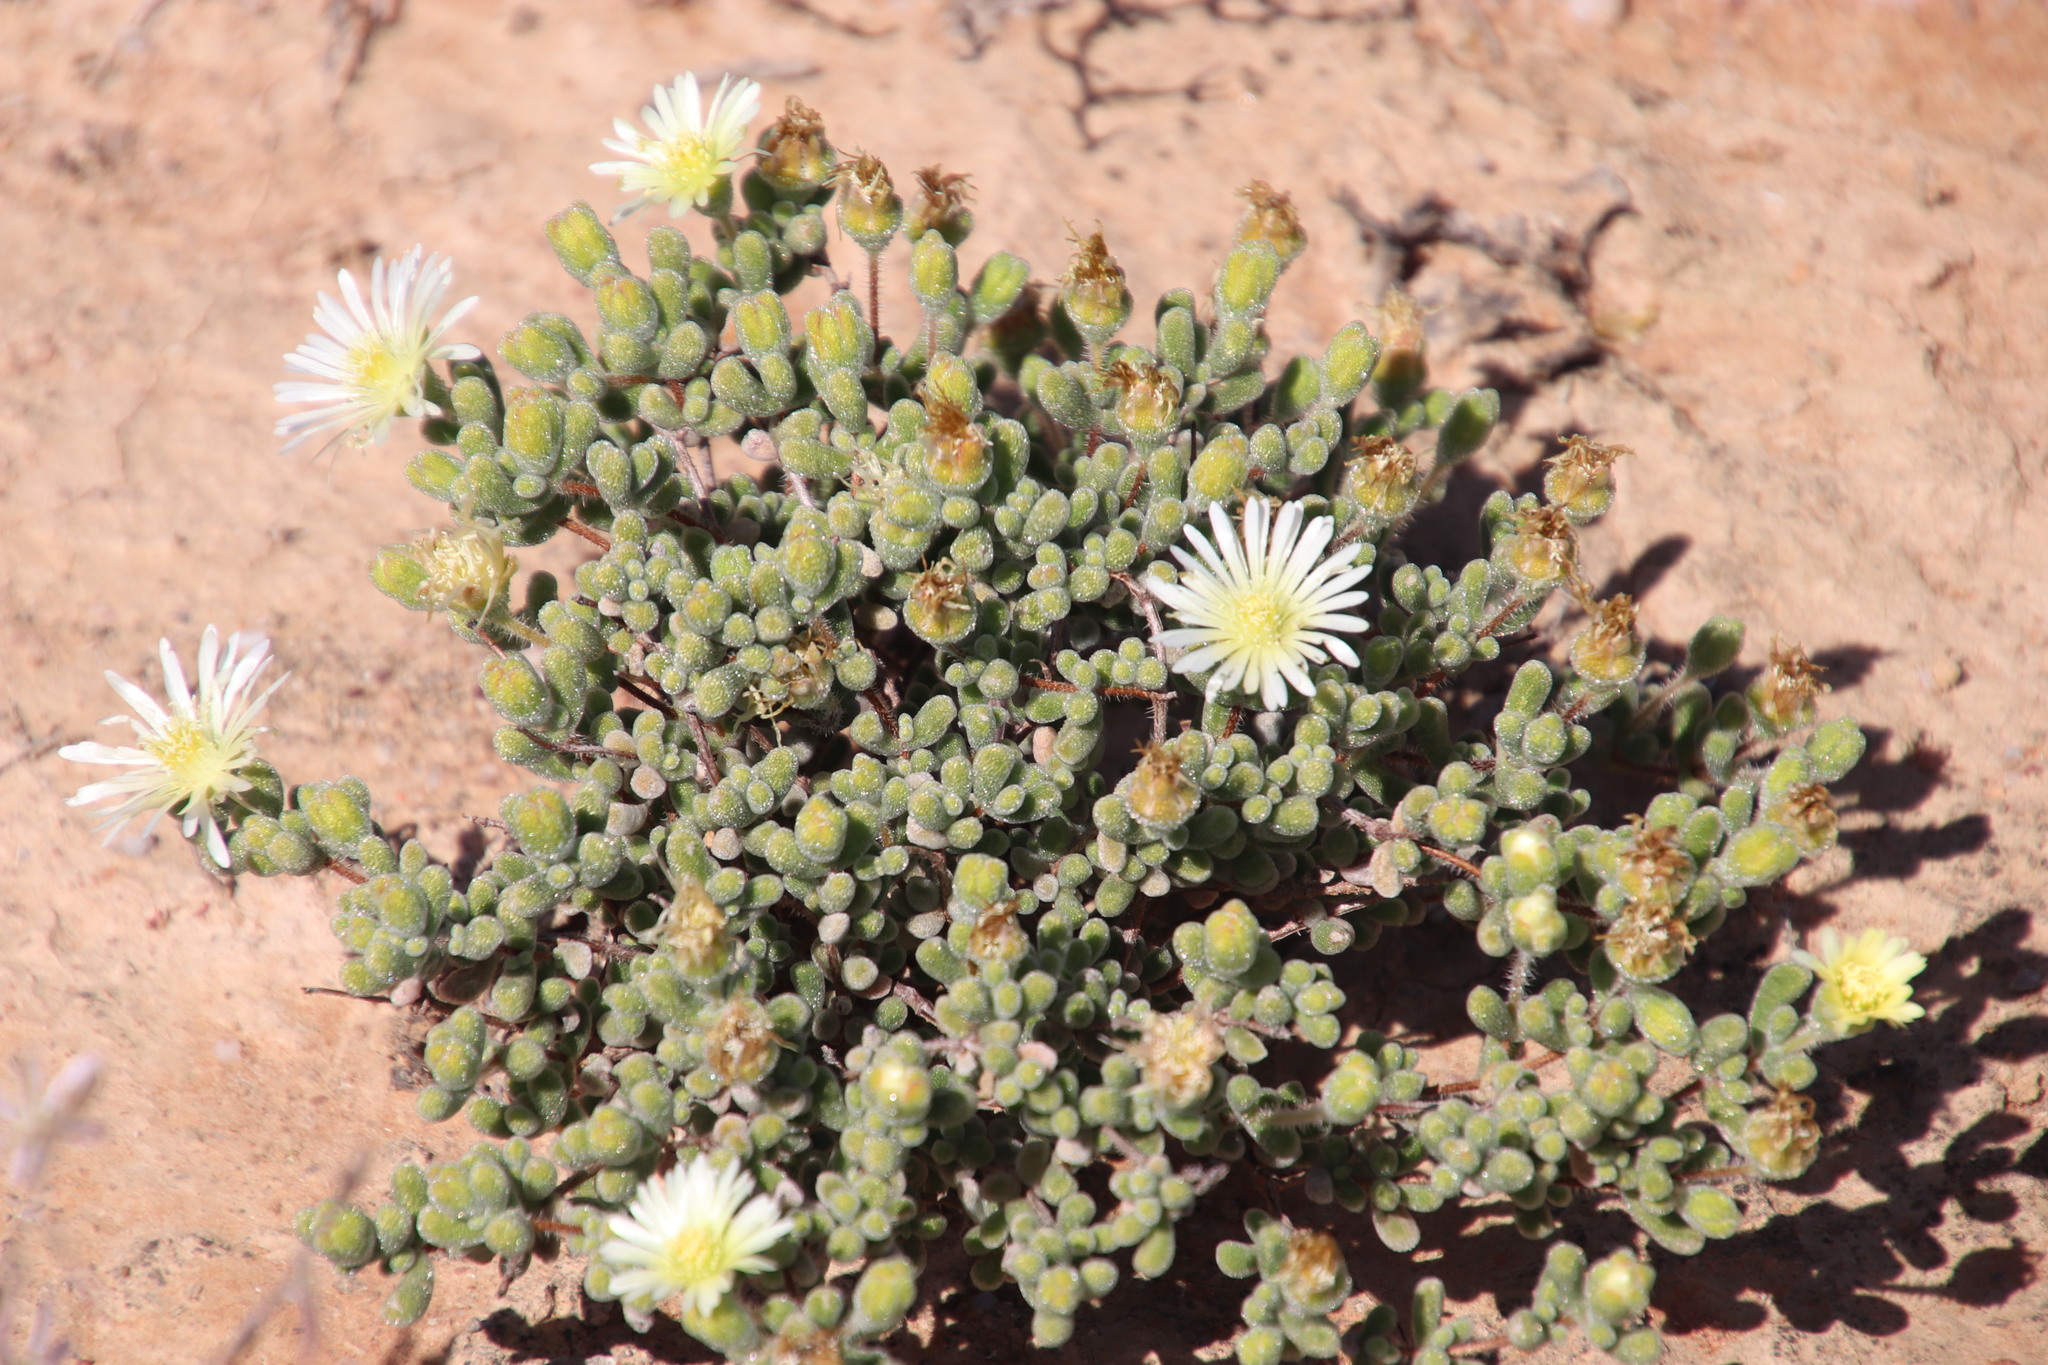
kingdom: Plantae
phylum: Tracheophyta
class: Magnoliopsida
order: Caryophyllales
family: Aizoaceae
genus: Drosanthemum
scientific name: Drosanthemum schoenlandianum
